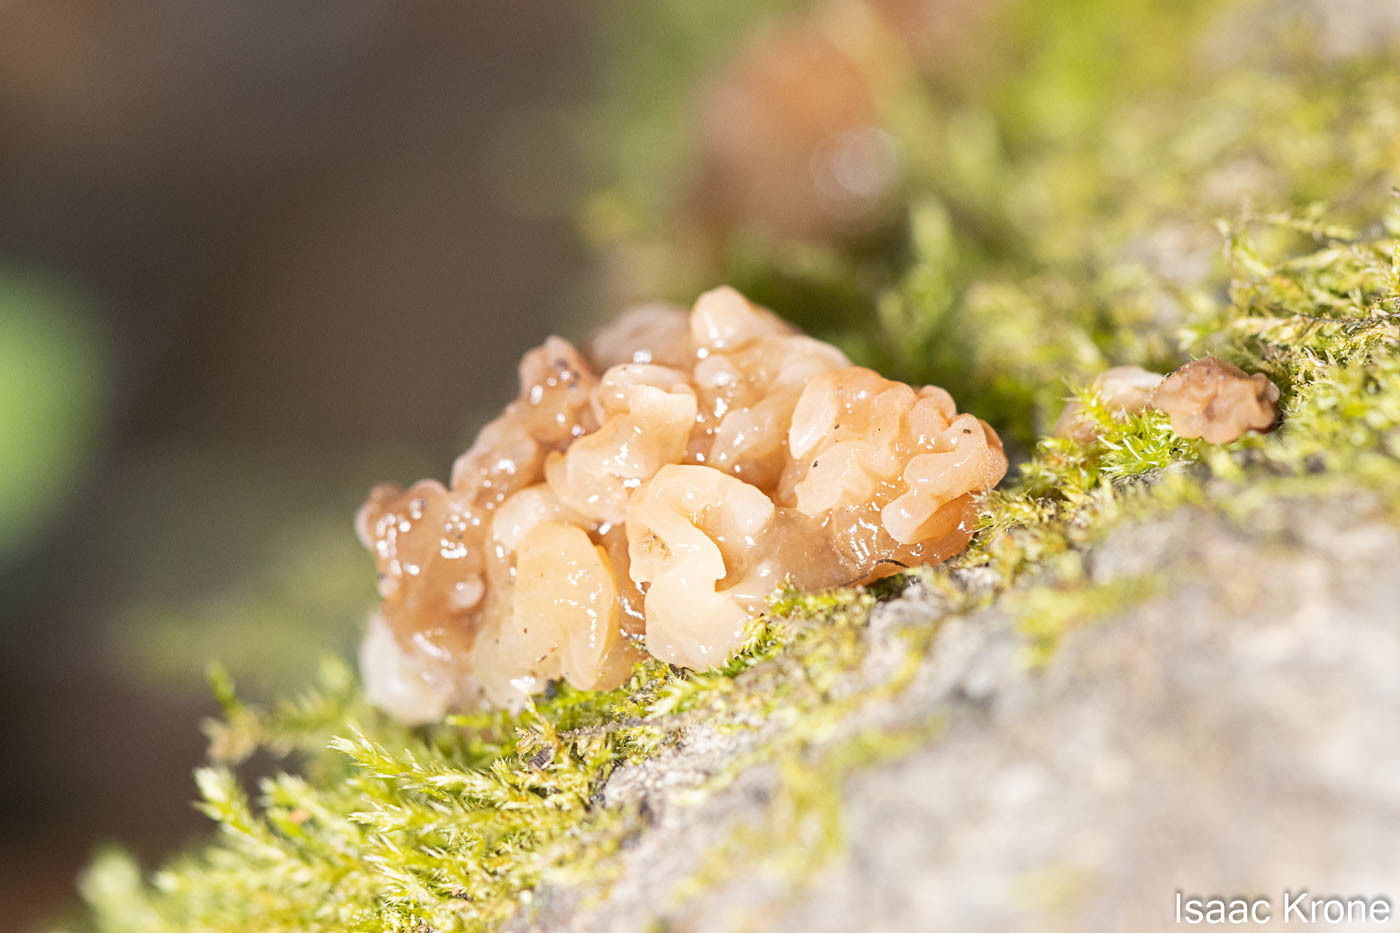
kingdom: Fungi
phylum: Basidiomycota
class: Agaricomycetes
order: Auriculariales
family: Hyaloriaceae
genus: Myxarium
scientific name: Myxarium nucleatum
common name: Crystal brain fungus
